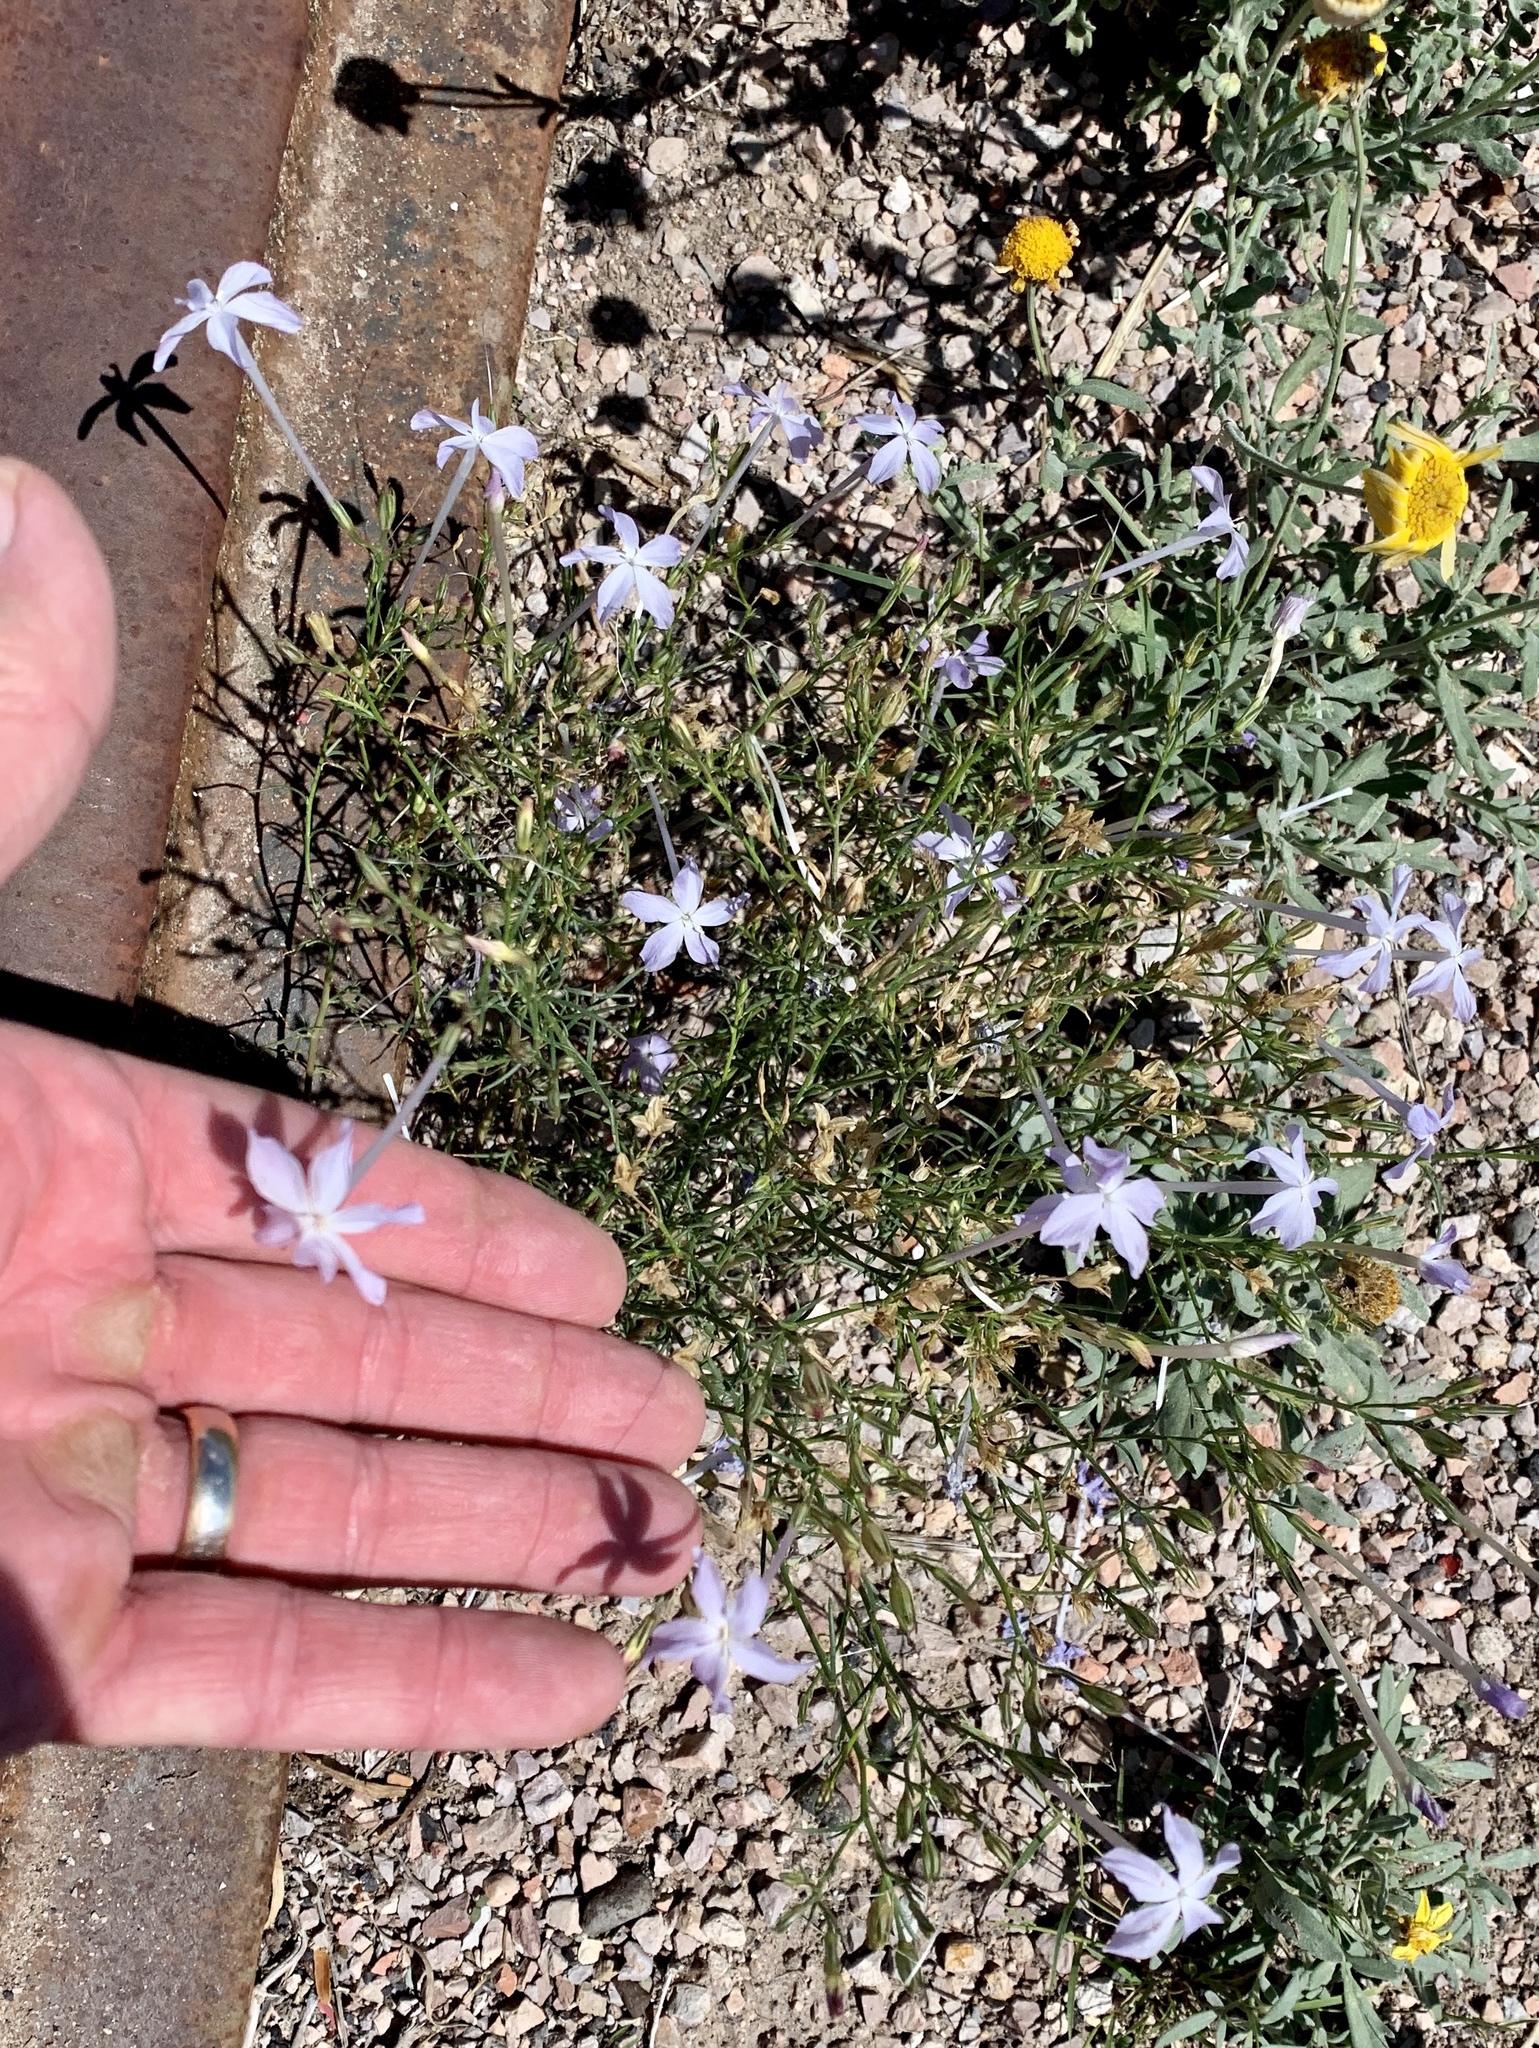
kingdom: Plantae
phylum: Tracheophyta
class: Magnoliopsida
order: Ericales
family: Polemoniaceae
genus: Ipomopsis
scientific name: Ipomopsis longiflora
